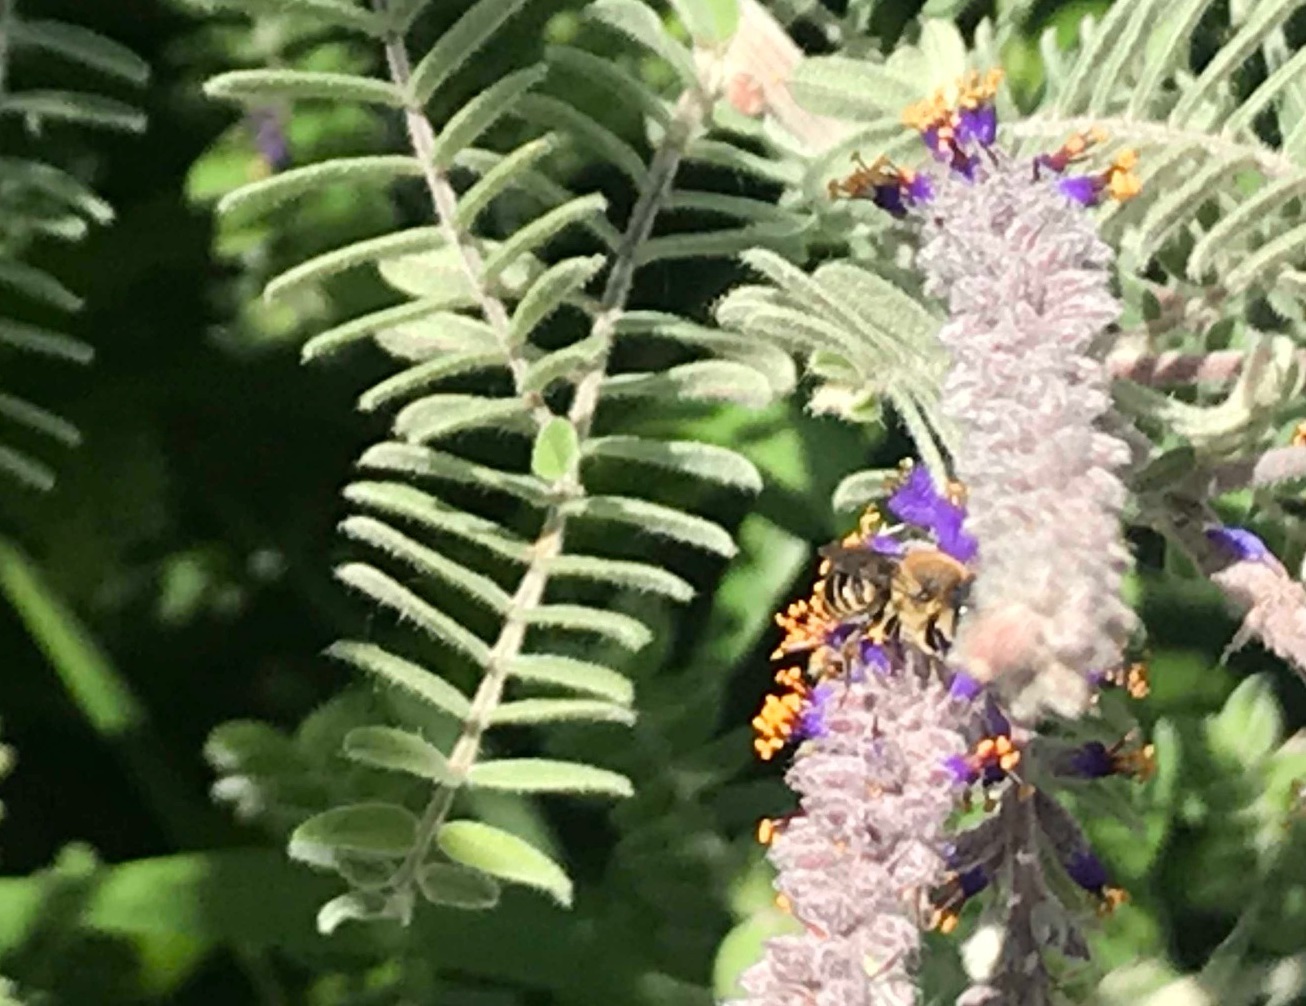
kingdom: Animalia
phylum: Arthropoda
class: Insecta
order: Hymenoptera
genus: Eutricharaea
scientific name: Eutricharaea
